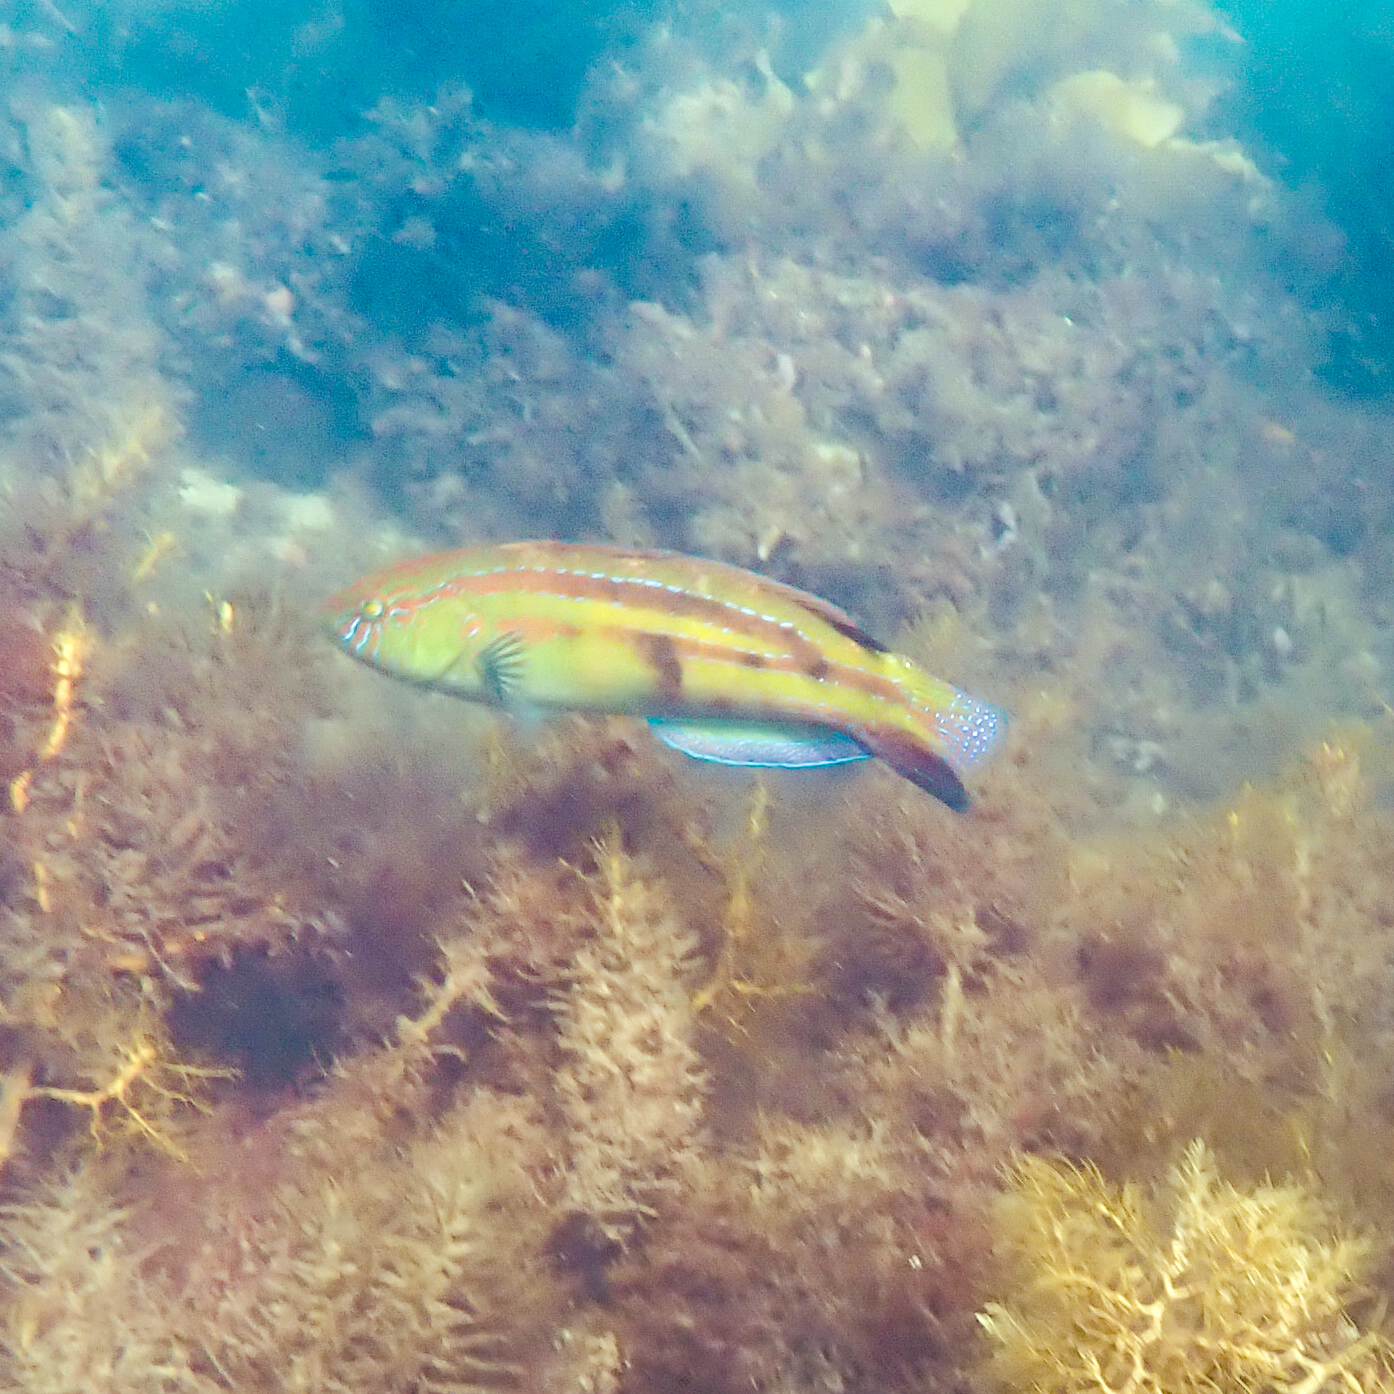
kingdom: Animalia
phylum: Chordata
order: Perciformes
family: Labridae
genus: Pictilabrus
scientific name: Pictilabrus laticlavius
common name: Patrician wrasse
